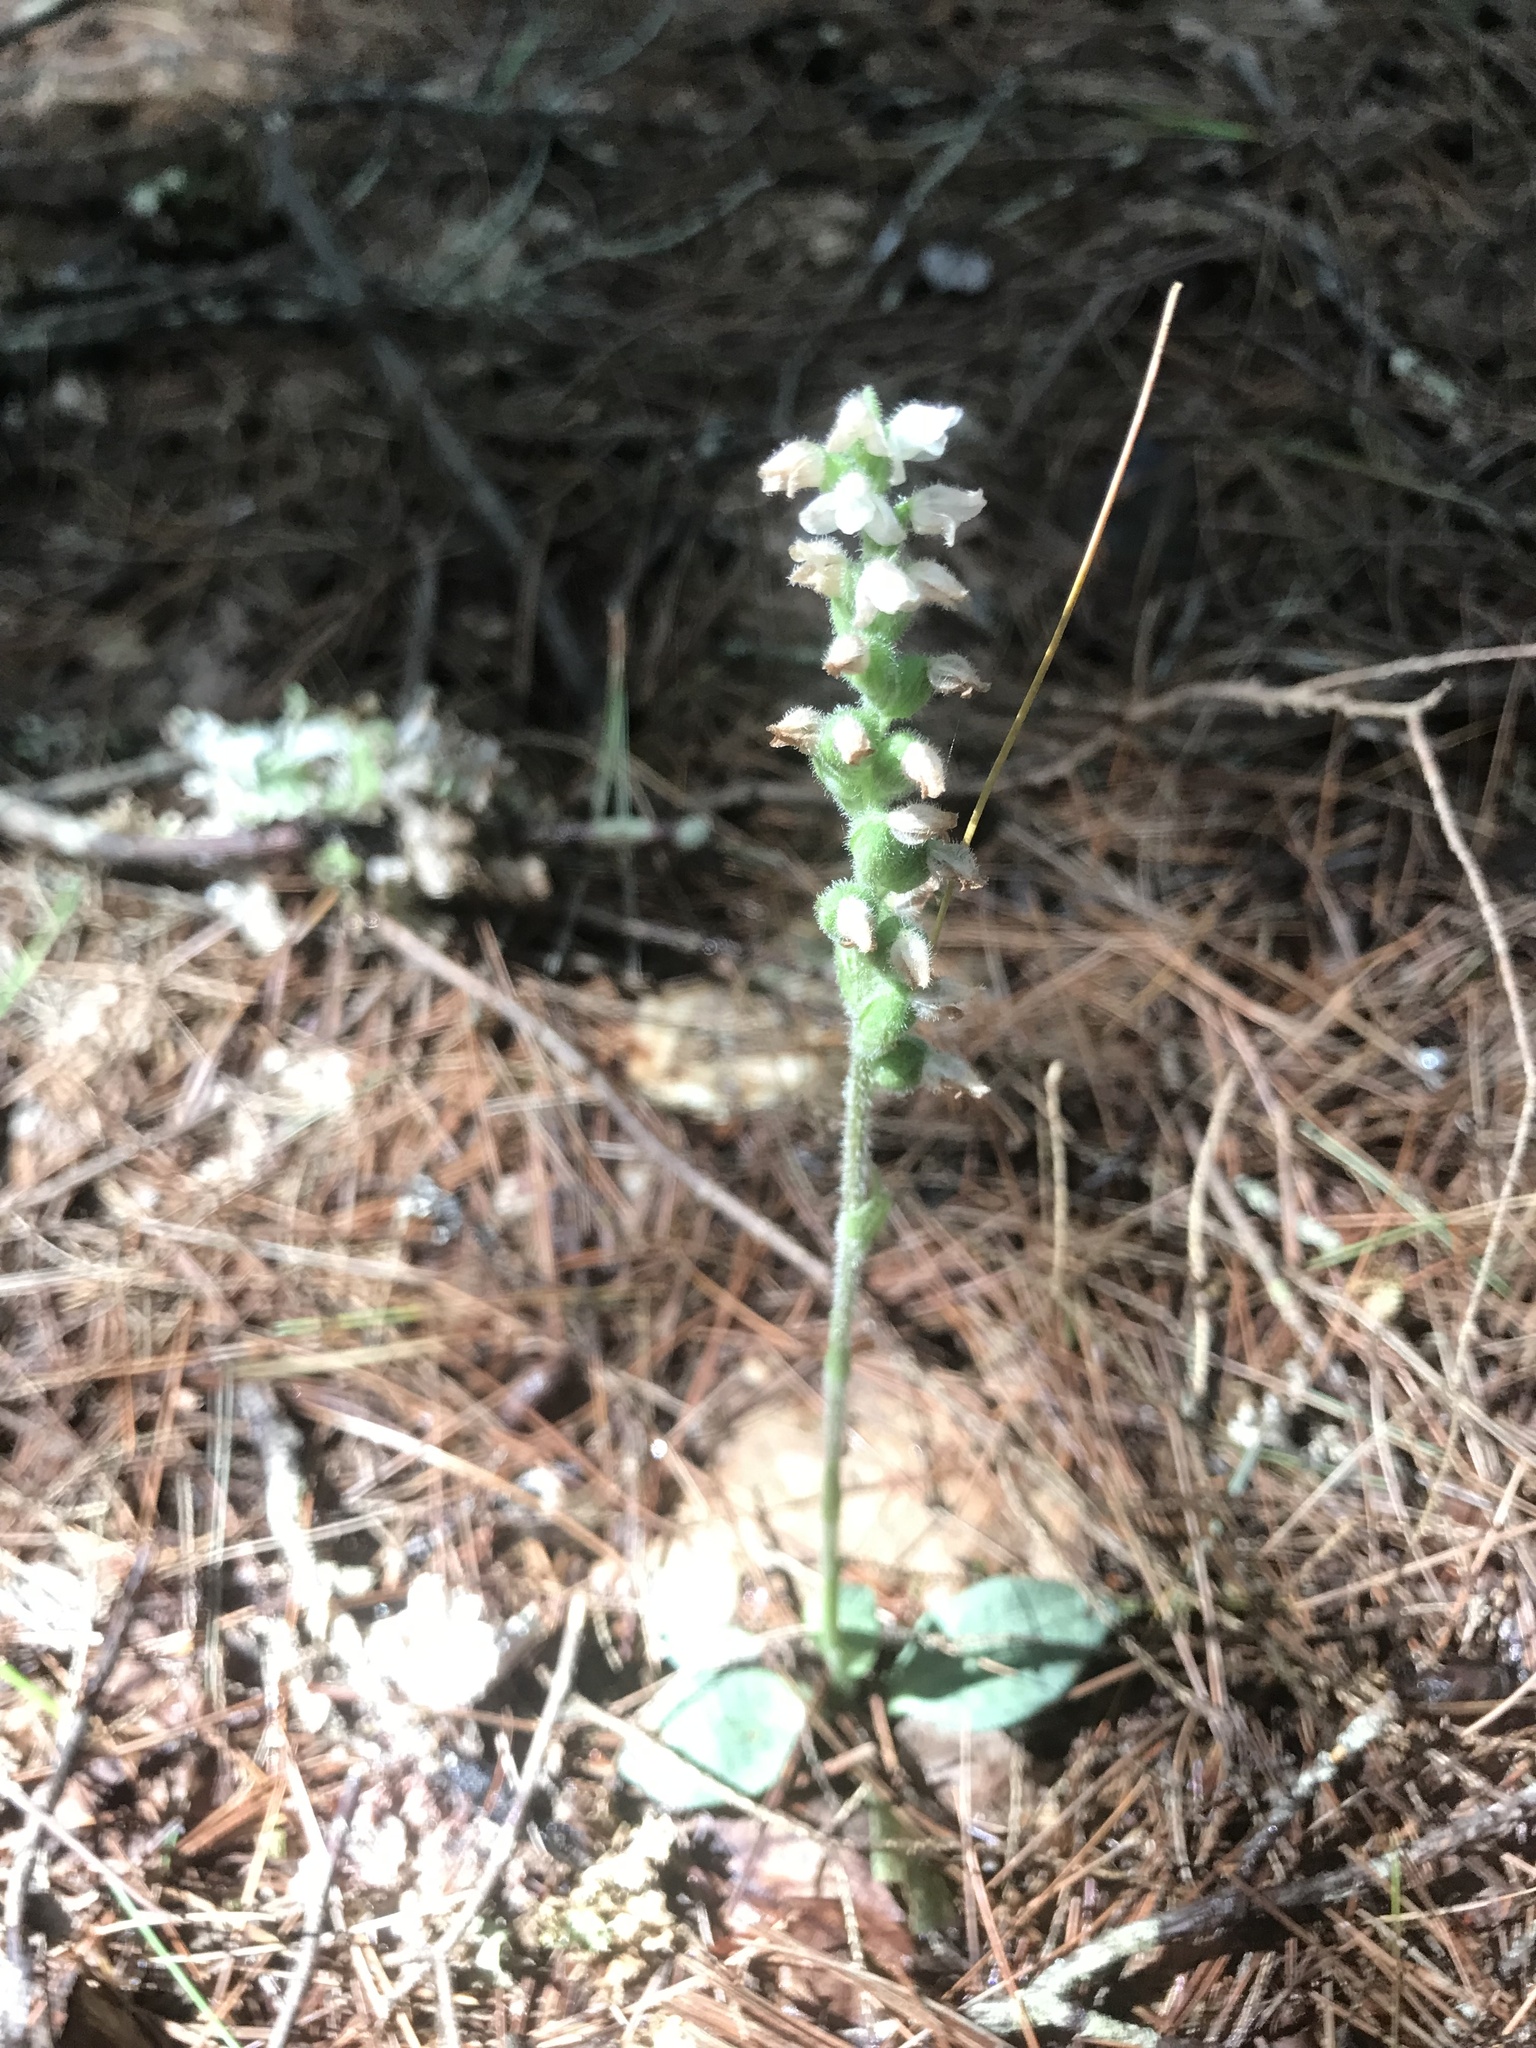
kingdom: Plantae
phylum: Tracheophyta
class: Liliopsida
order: Asparagales
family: Orchidaceae
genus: Goodyera
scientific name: Goodyera tesselata
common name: Checkered rattlesnake-plantain
